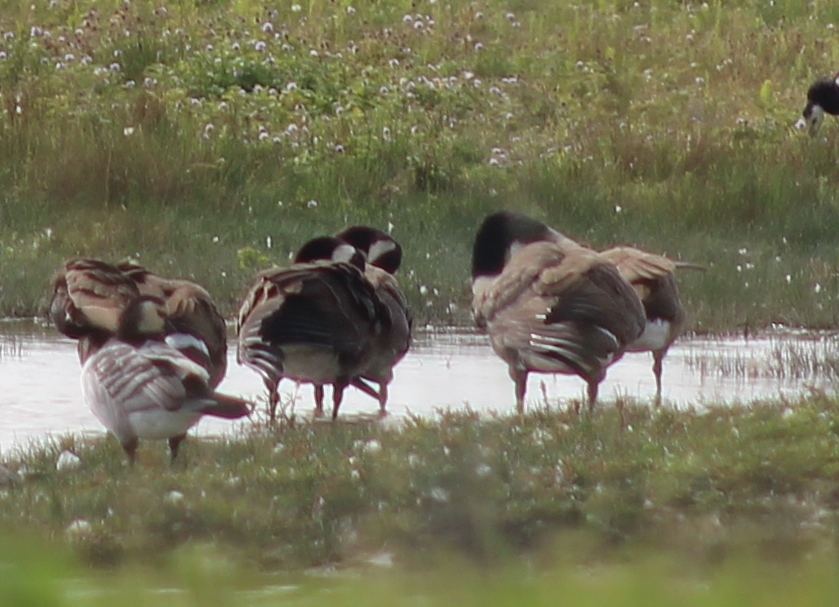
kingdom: Animalia
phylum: Chordata
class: Aves
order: Anseriformes
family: Anatidae
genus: Branta
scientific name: Branta canadensis
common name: Canada goose
